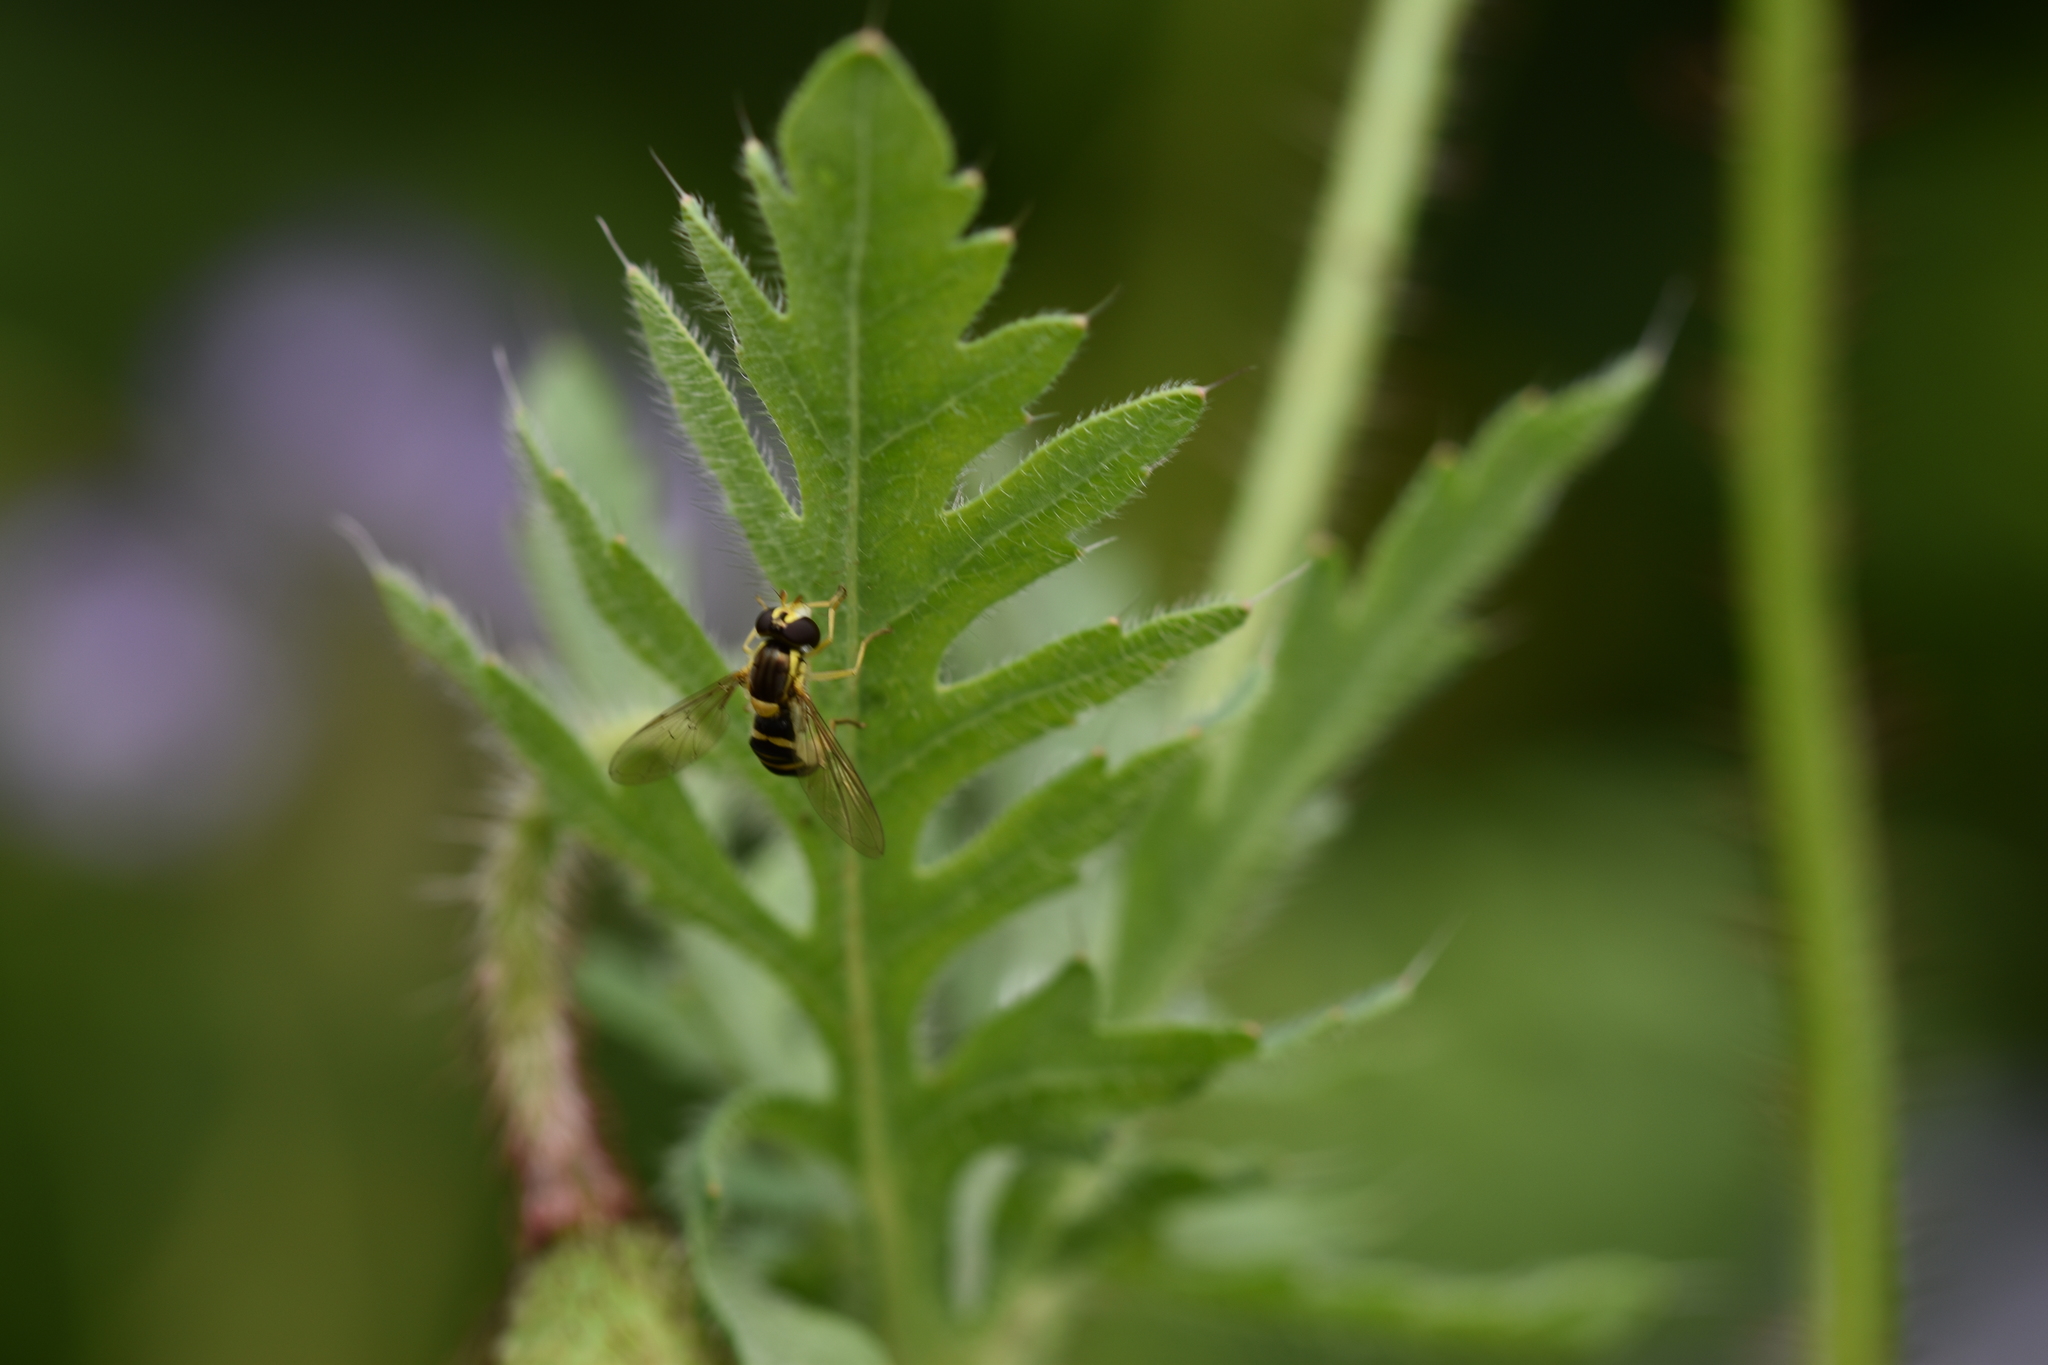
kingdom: Animalia
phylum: Arthropoda
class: Insecta
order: Diptera
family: Syrphidae
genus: Sphaerophoria
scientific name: Sphaerophoria
